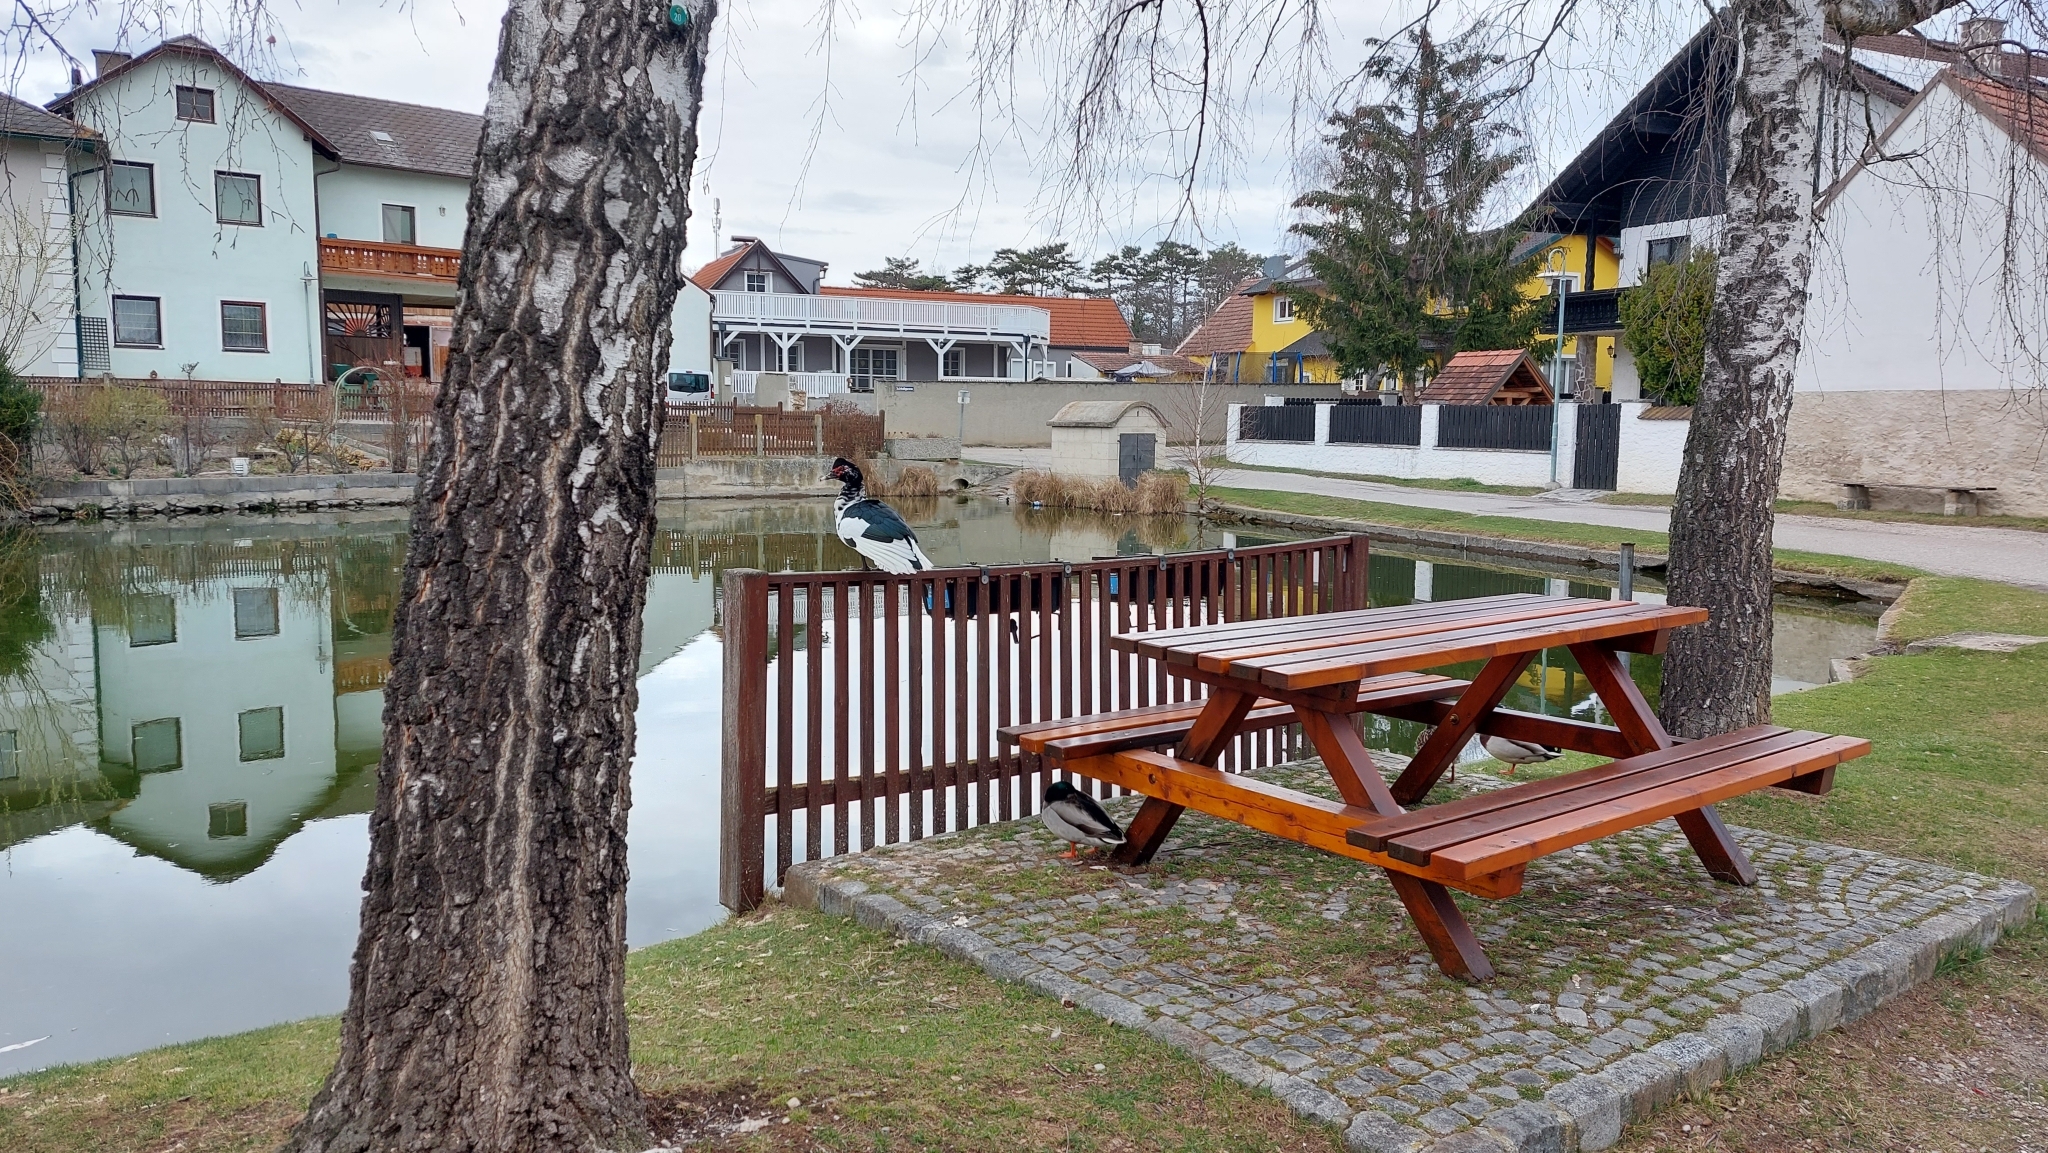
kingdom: Animalia
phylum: Chordata
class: Aves
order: Anseriformes
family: Anatidae
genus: Cairina
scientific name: Cairina moschata
